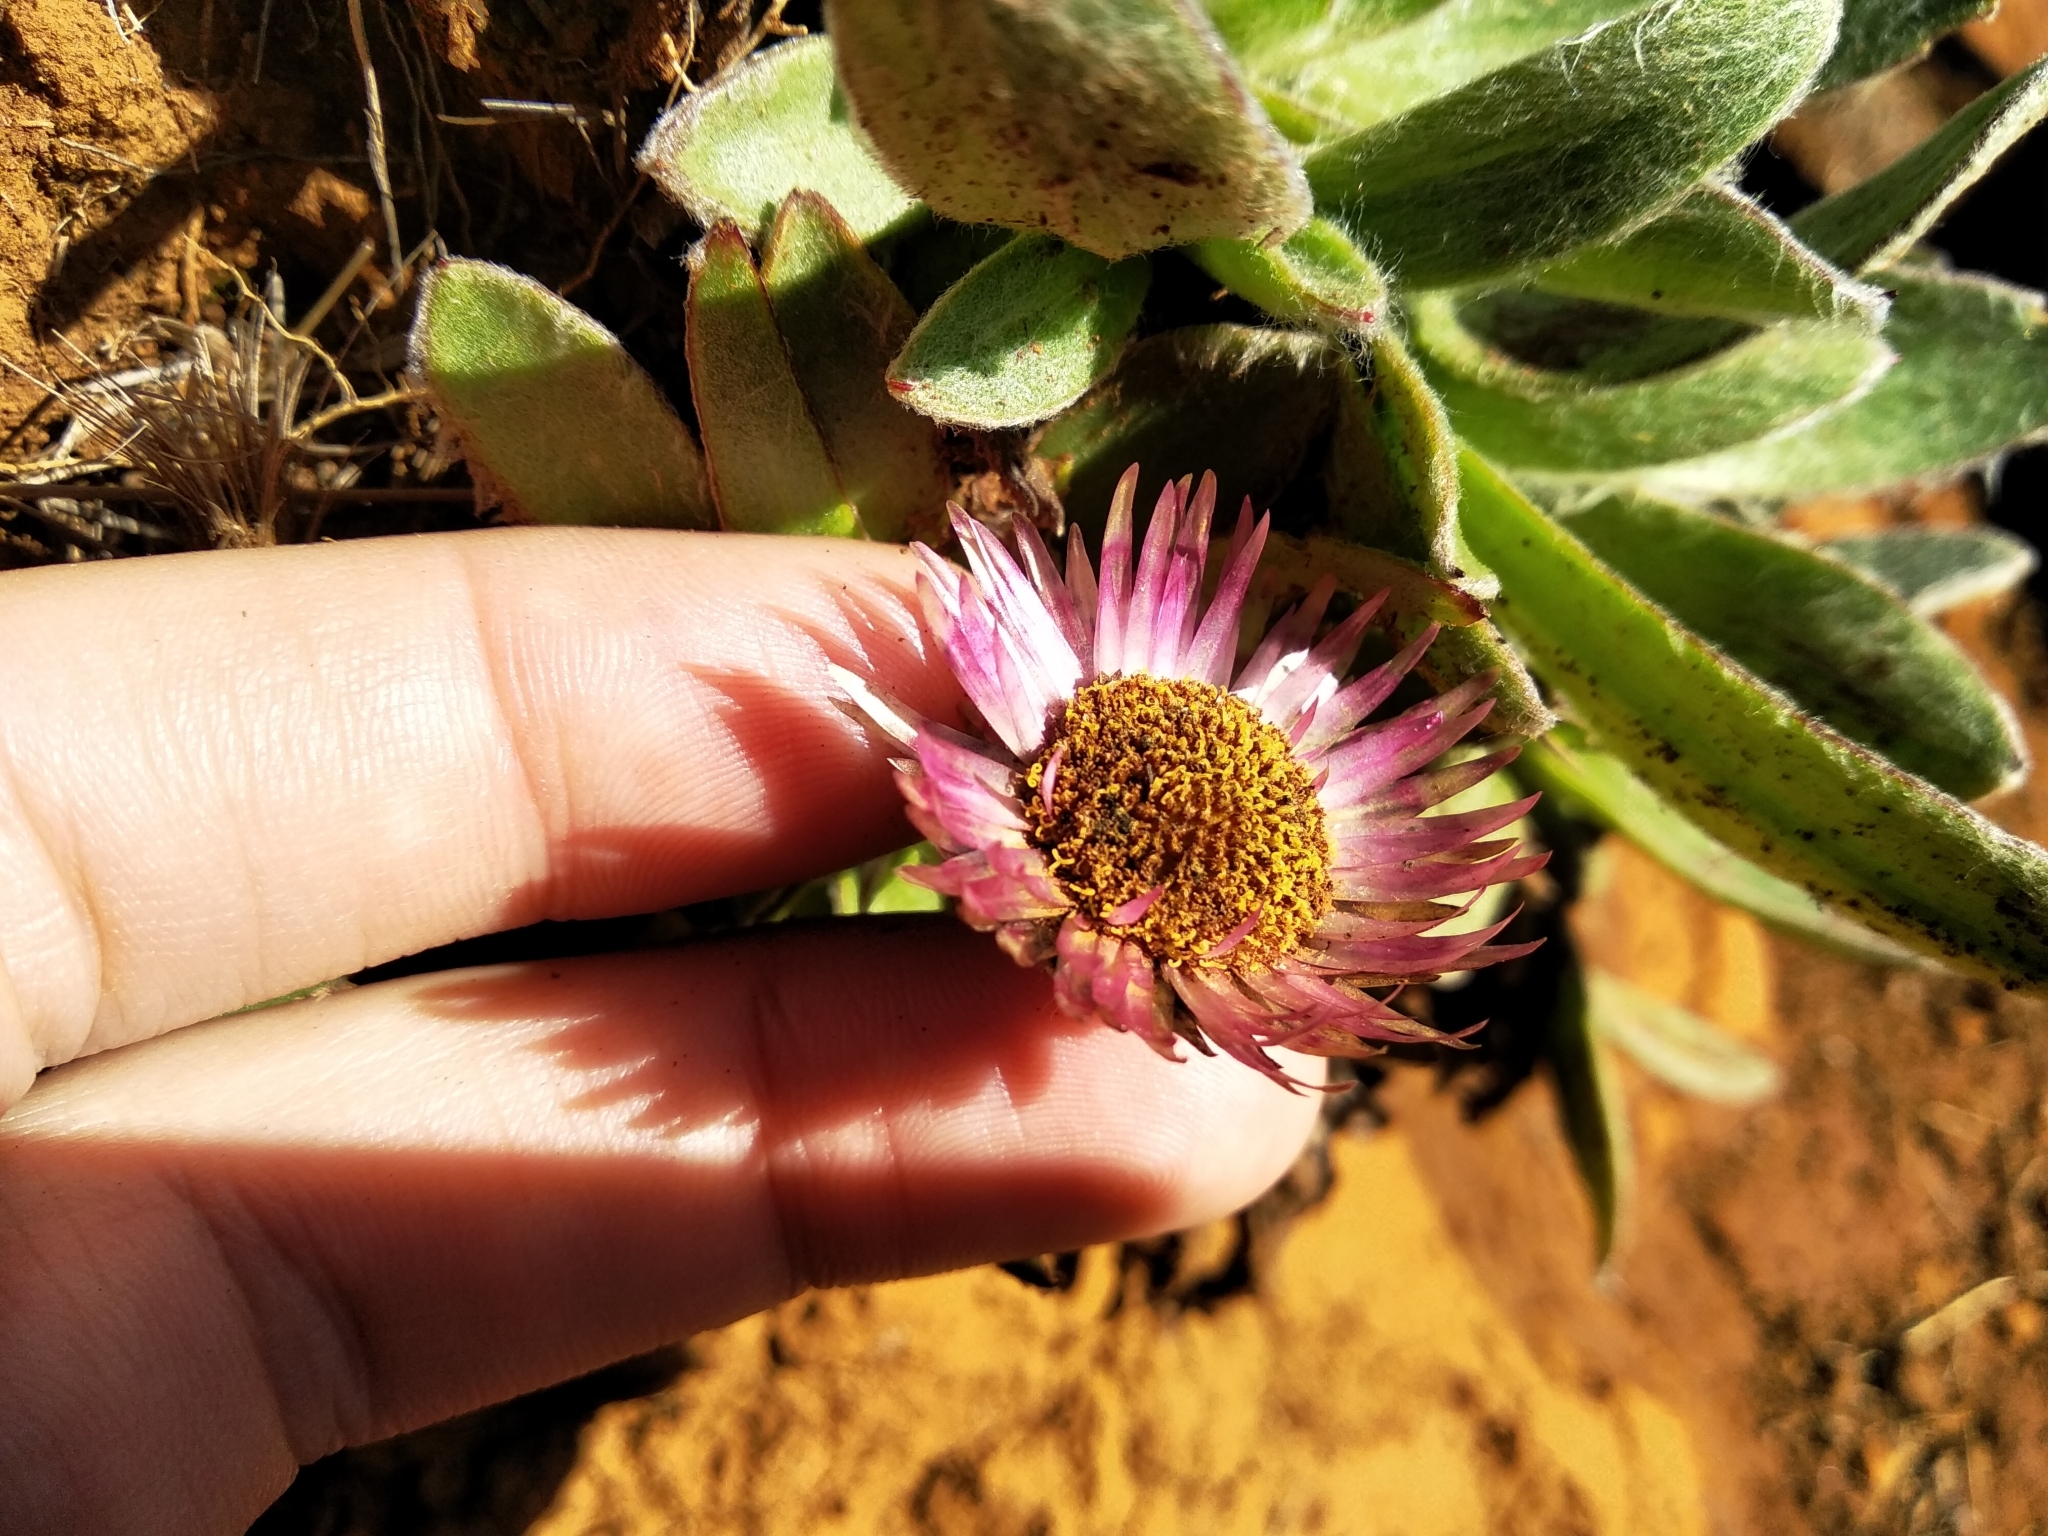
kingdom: Plantae
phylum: Tracheophyta
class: Magnoliopsida
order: Asterales
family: Asteraceae
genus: Helichrysum
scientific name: Helichrysum ecklonis
